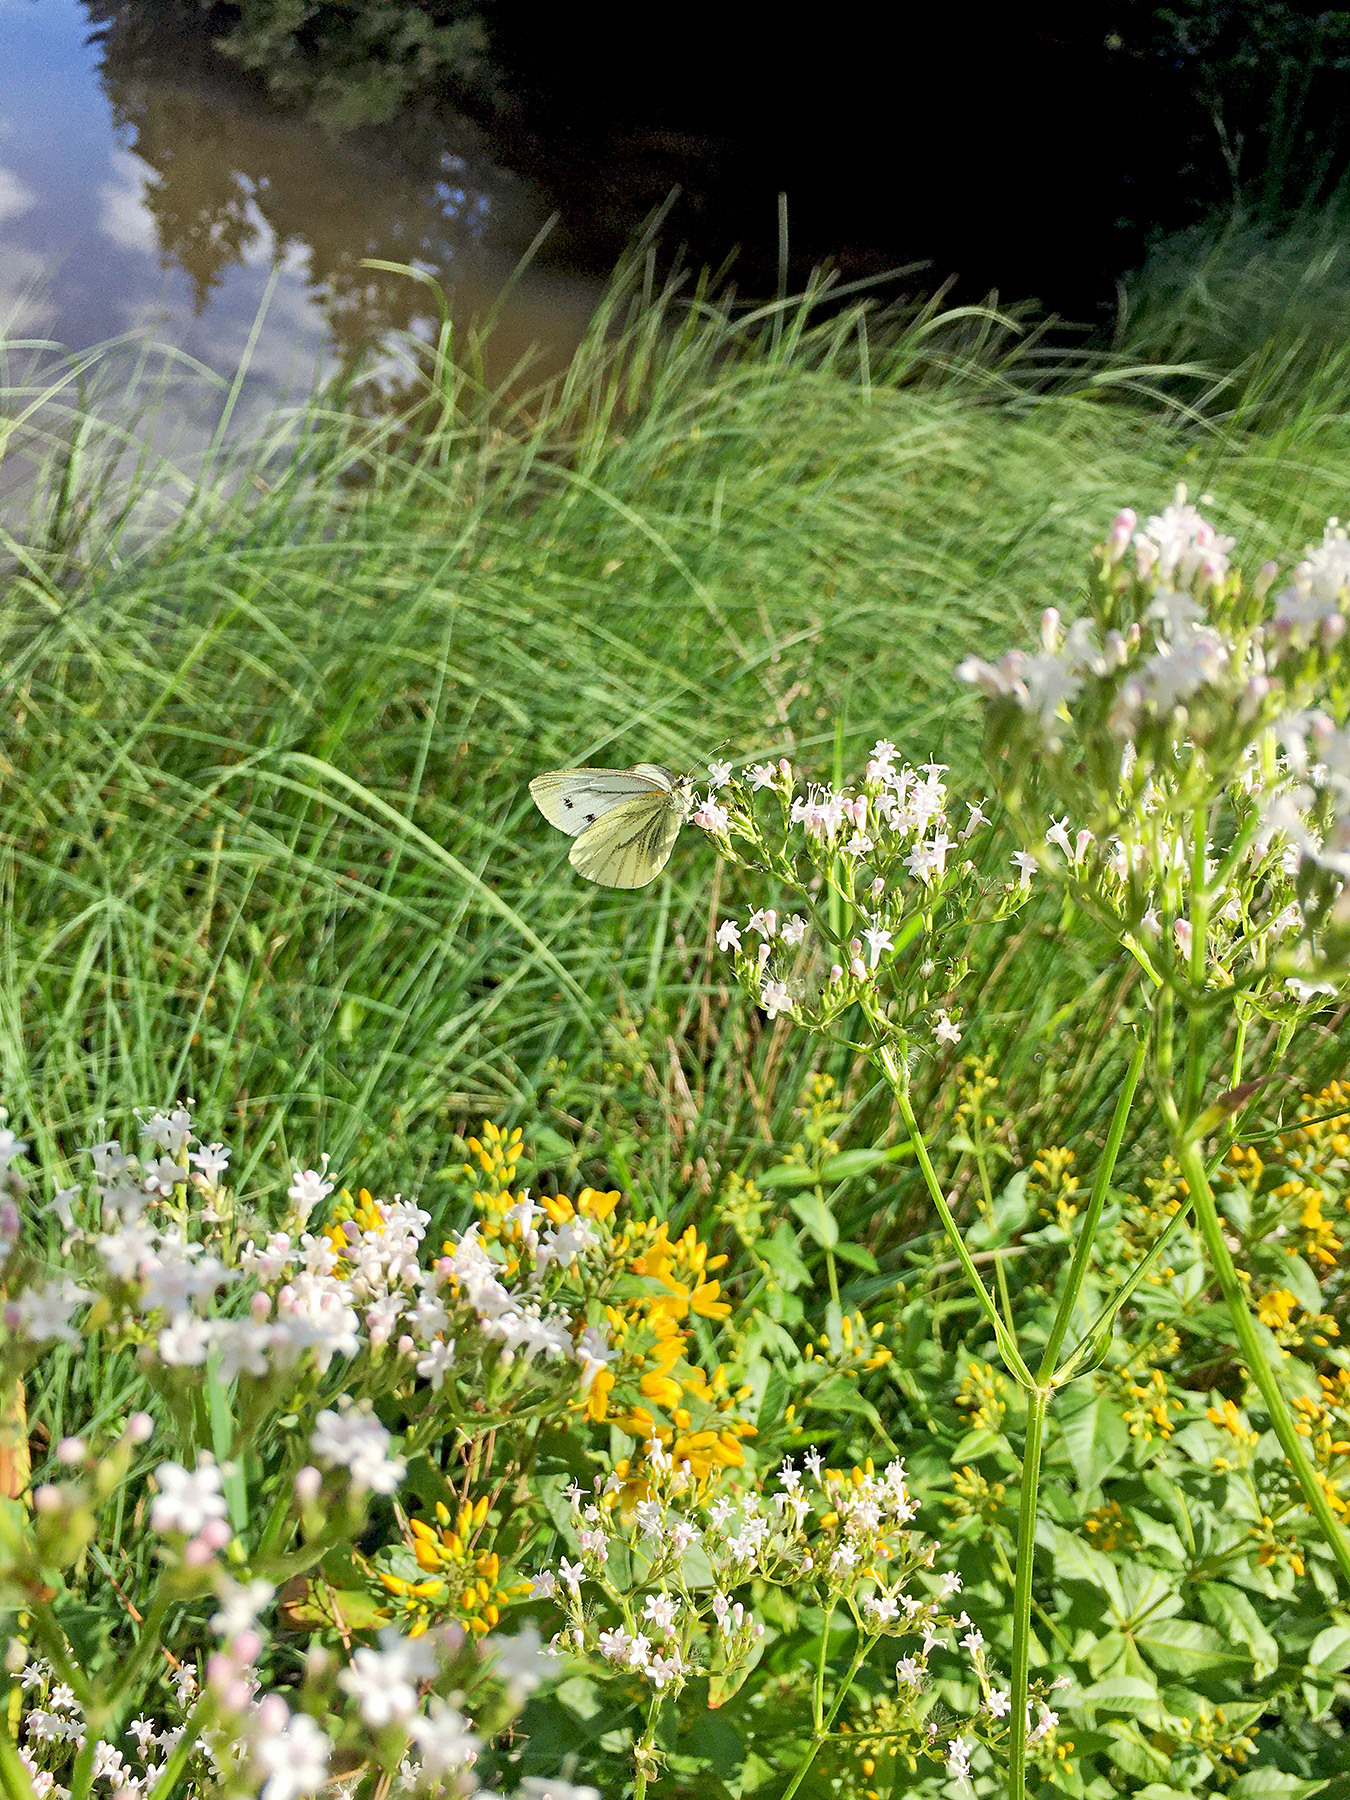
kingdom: Animalia
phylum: Arthropoda
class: Insecta
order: Lepidoptera
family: Pieridae
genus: Pieris
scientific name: Pieris napi
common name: Green-veined white
